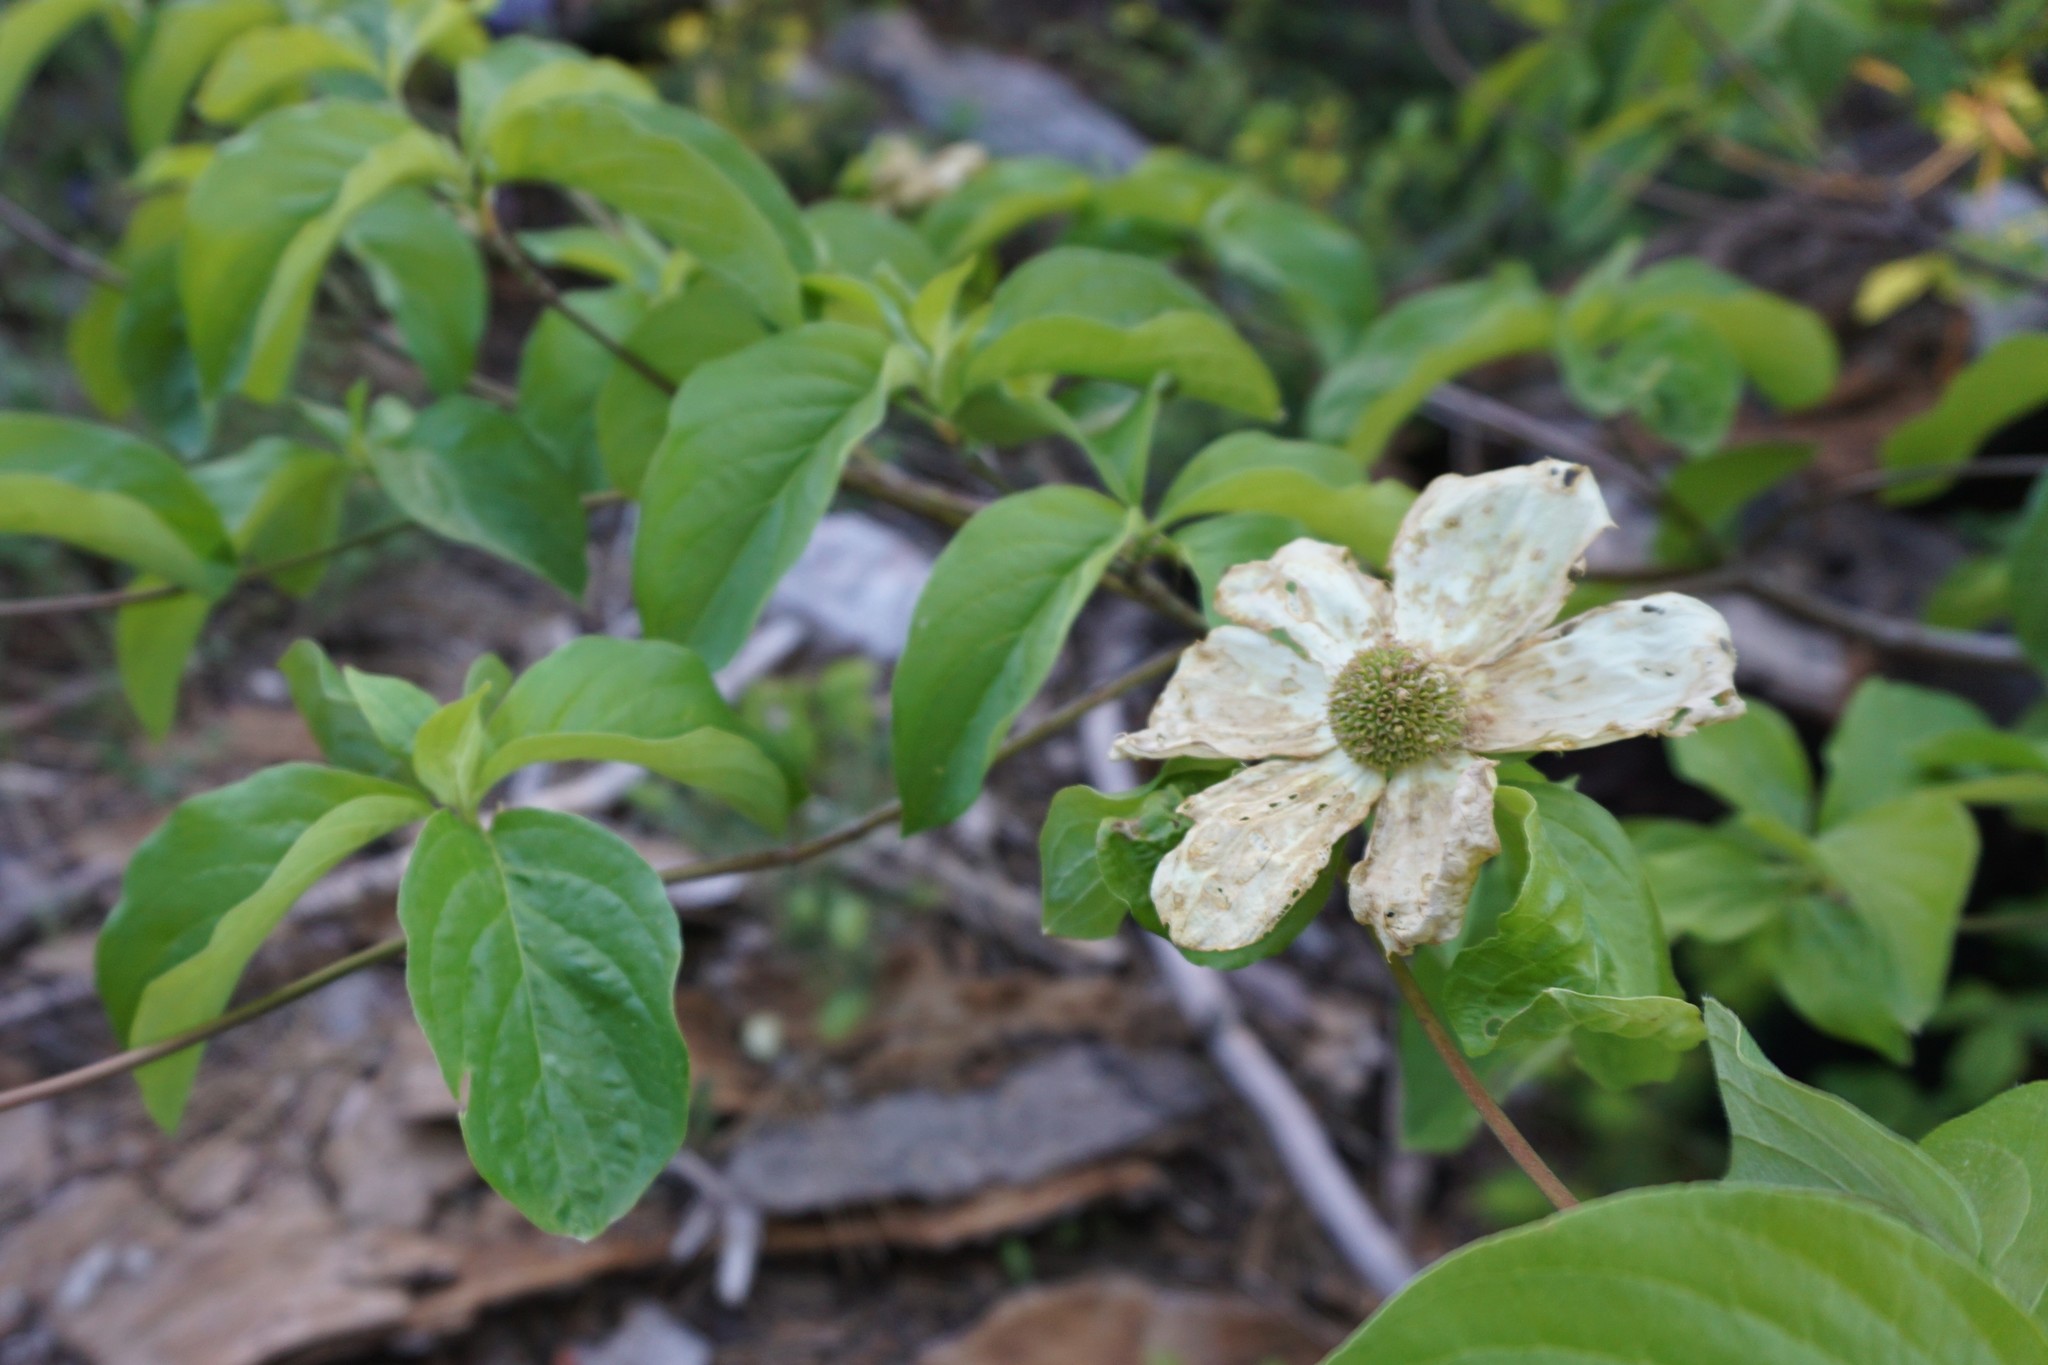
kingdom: Plantae
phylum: Tracheophyta
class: Magnoliopsida
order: Cornales
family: Cornaceae
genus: Cornus
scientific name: Cornus nuttallii
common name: Pacific dogwood
